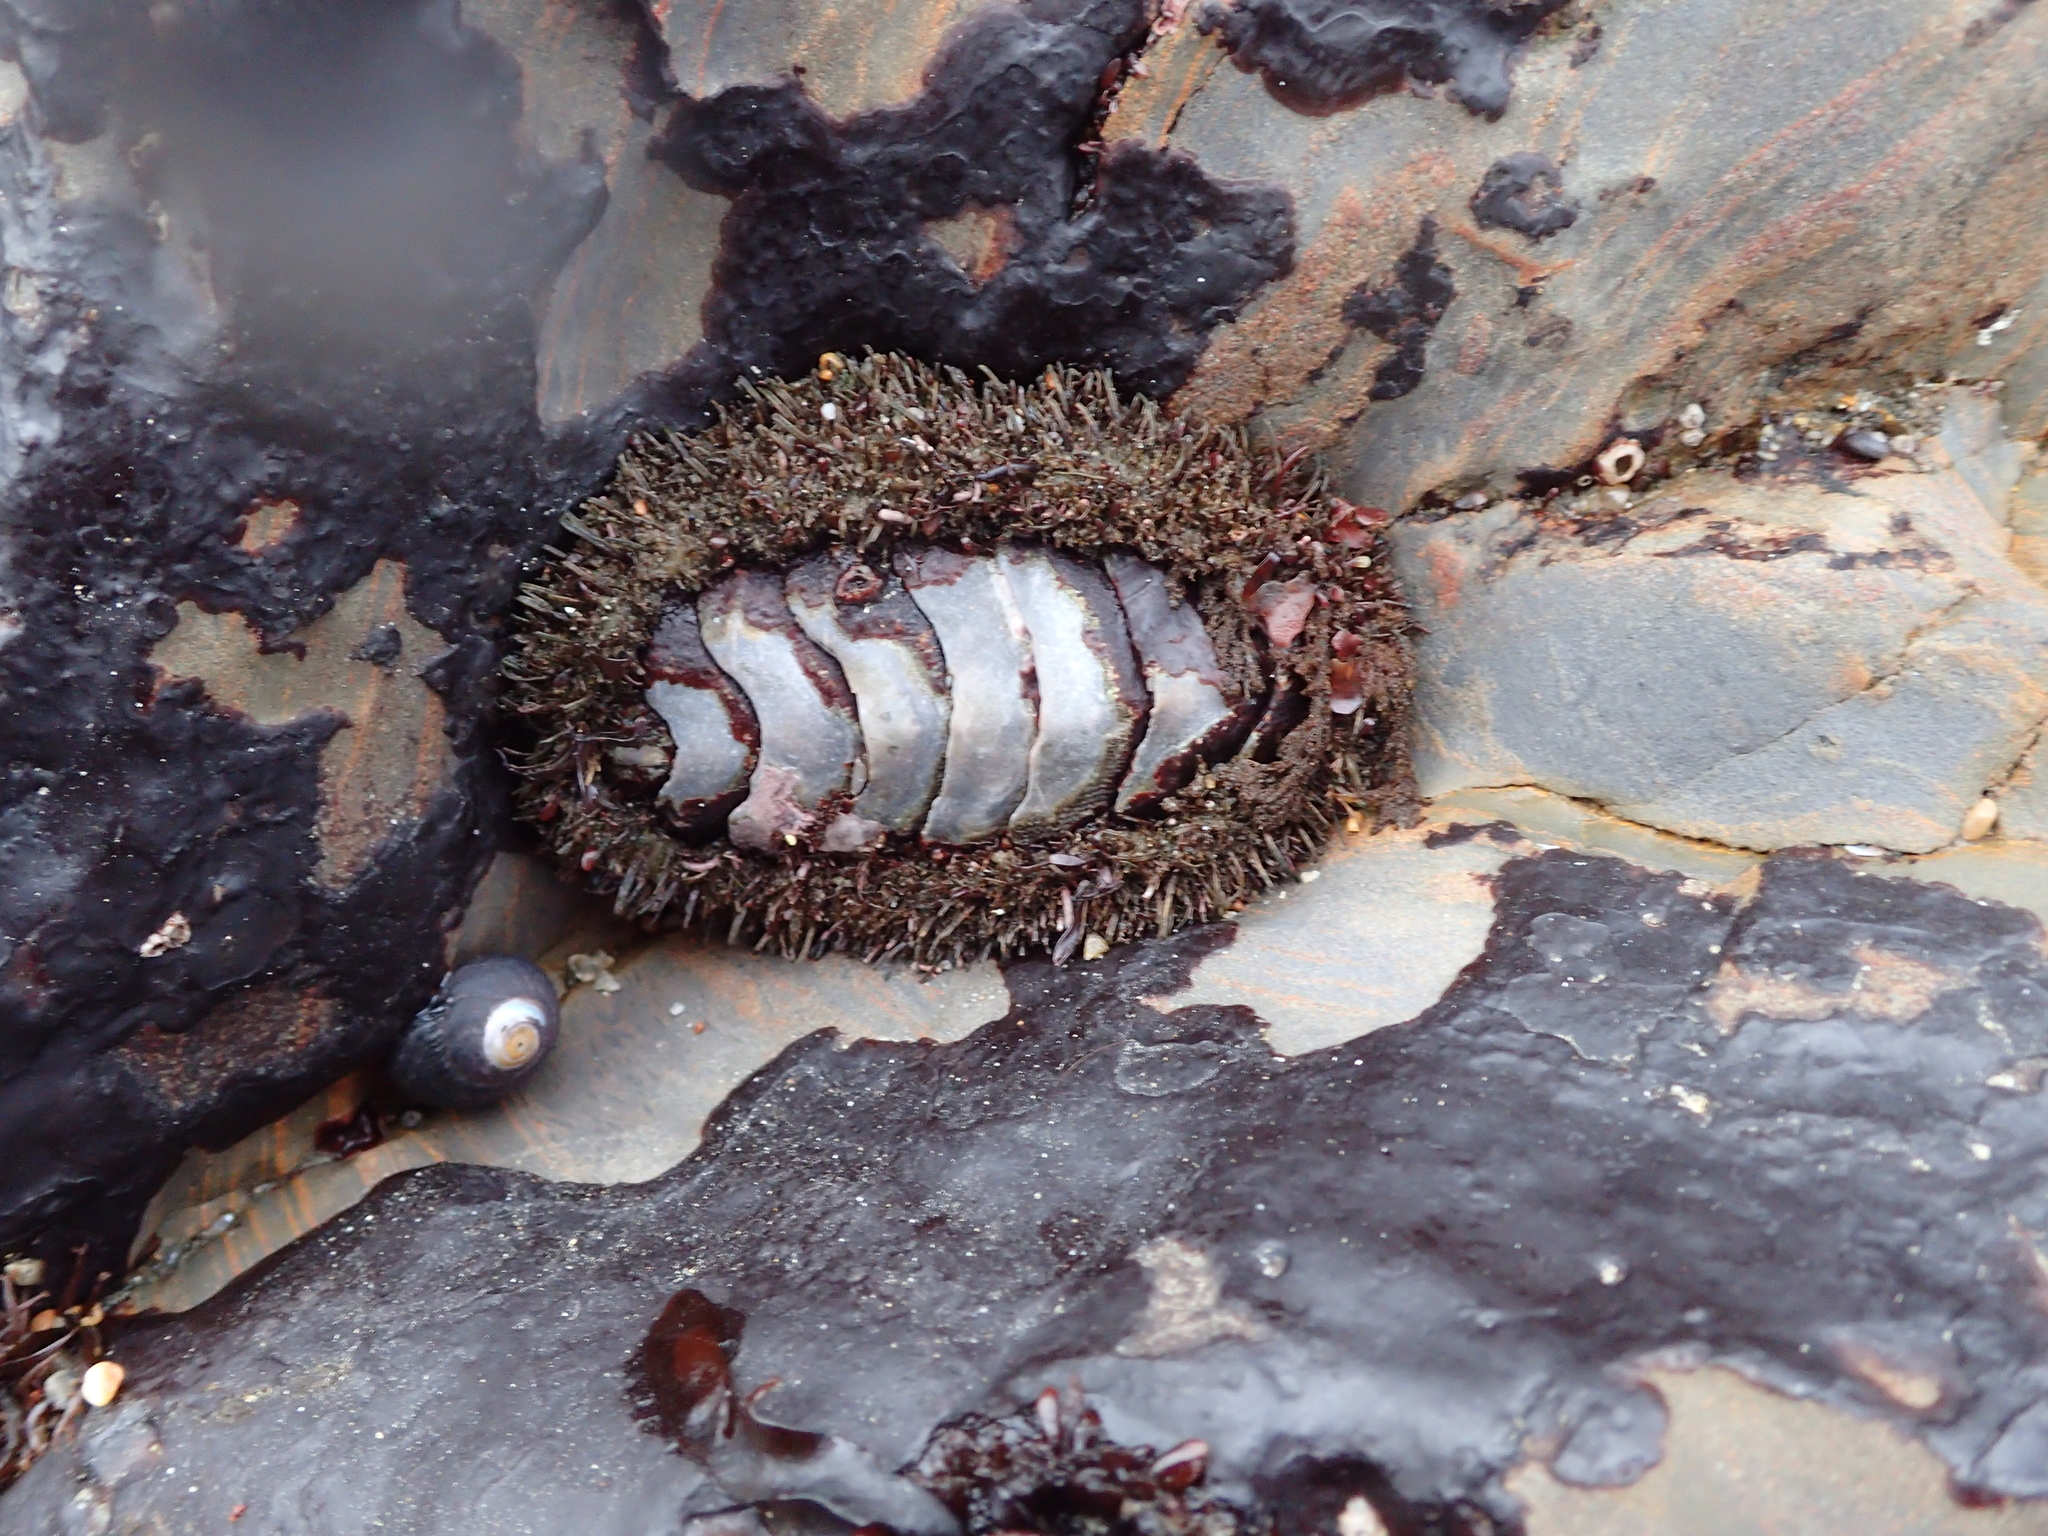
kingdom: Animalia
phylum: Mollusca
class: Polyplacophora
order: Chitonida
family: Mopaliidae
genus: Mopalia
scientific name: Mopalia muscosa
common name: Mossy chiton
